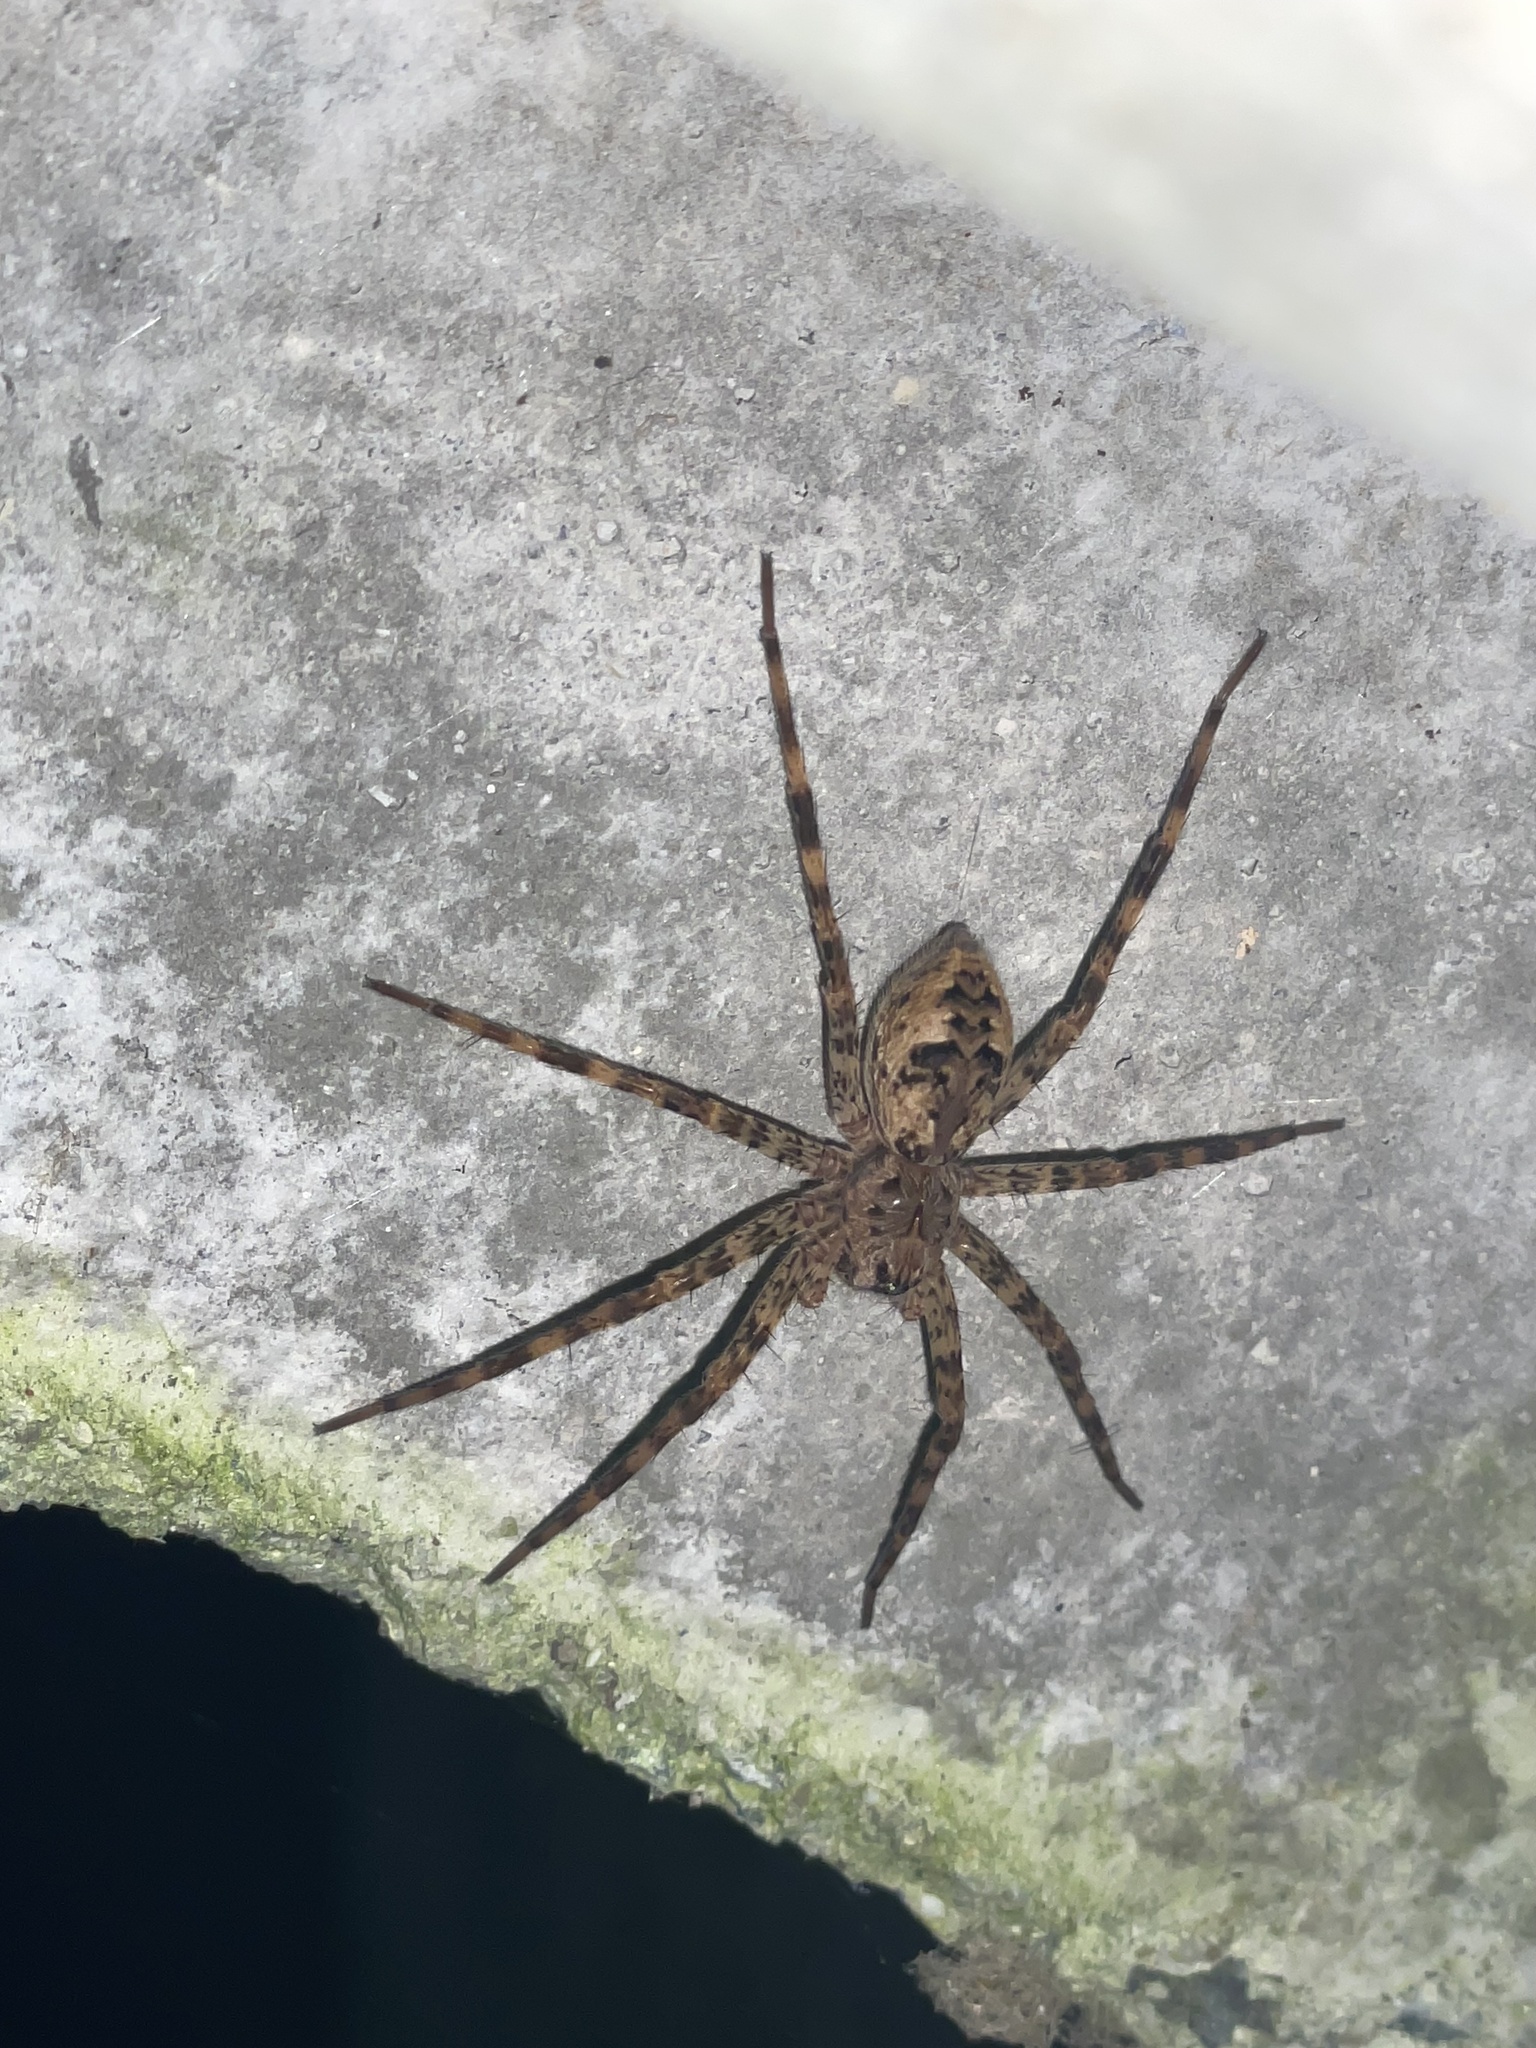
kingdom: Animalia
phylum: Arthropoda
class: Arachnida
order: Araneae
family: Pisauridae
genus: Dolomedes
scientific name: Dolomedes tenebrosus
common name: Dark fishing spider
